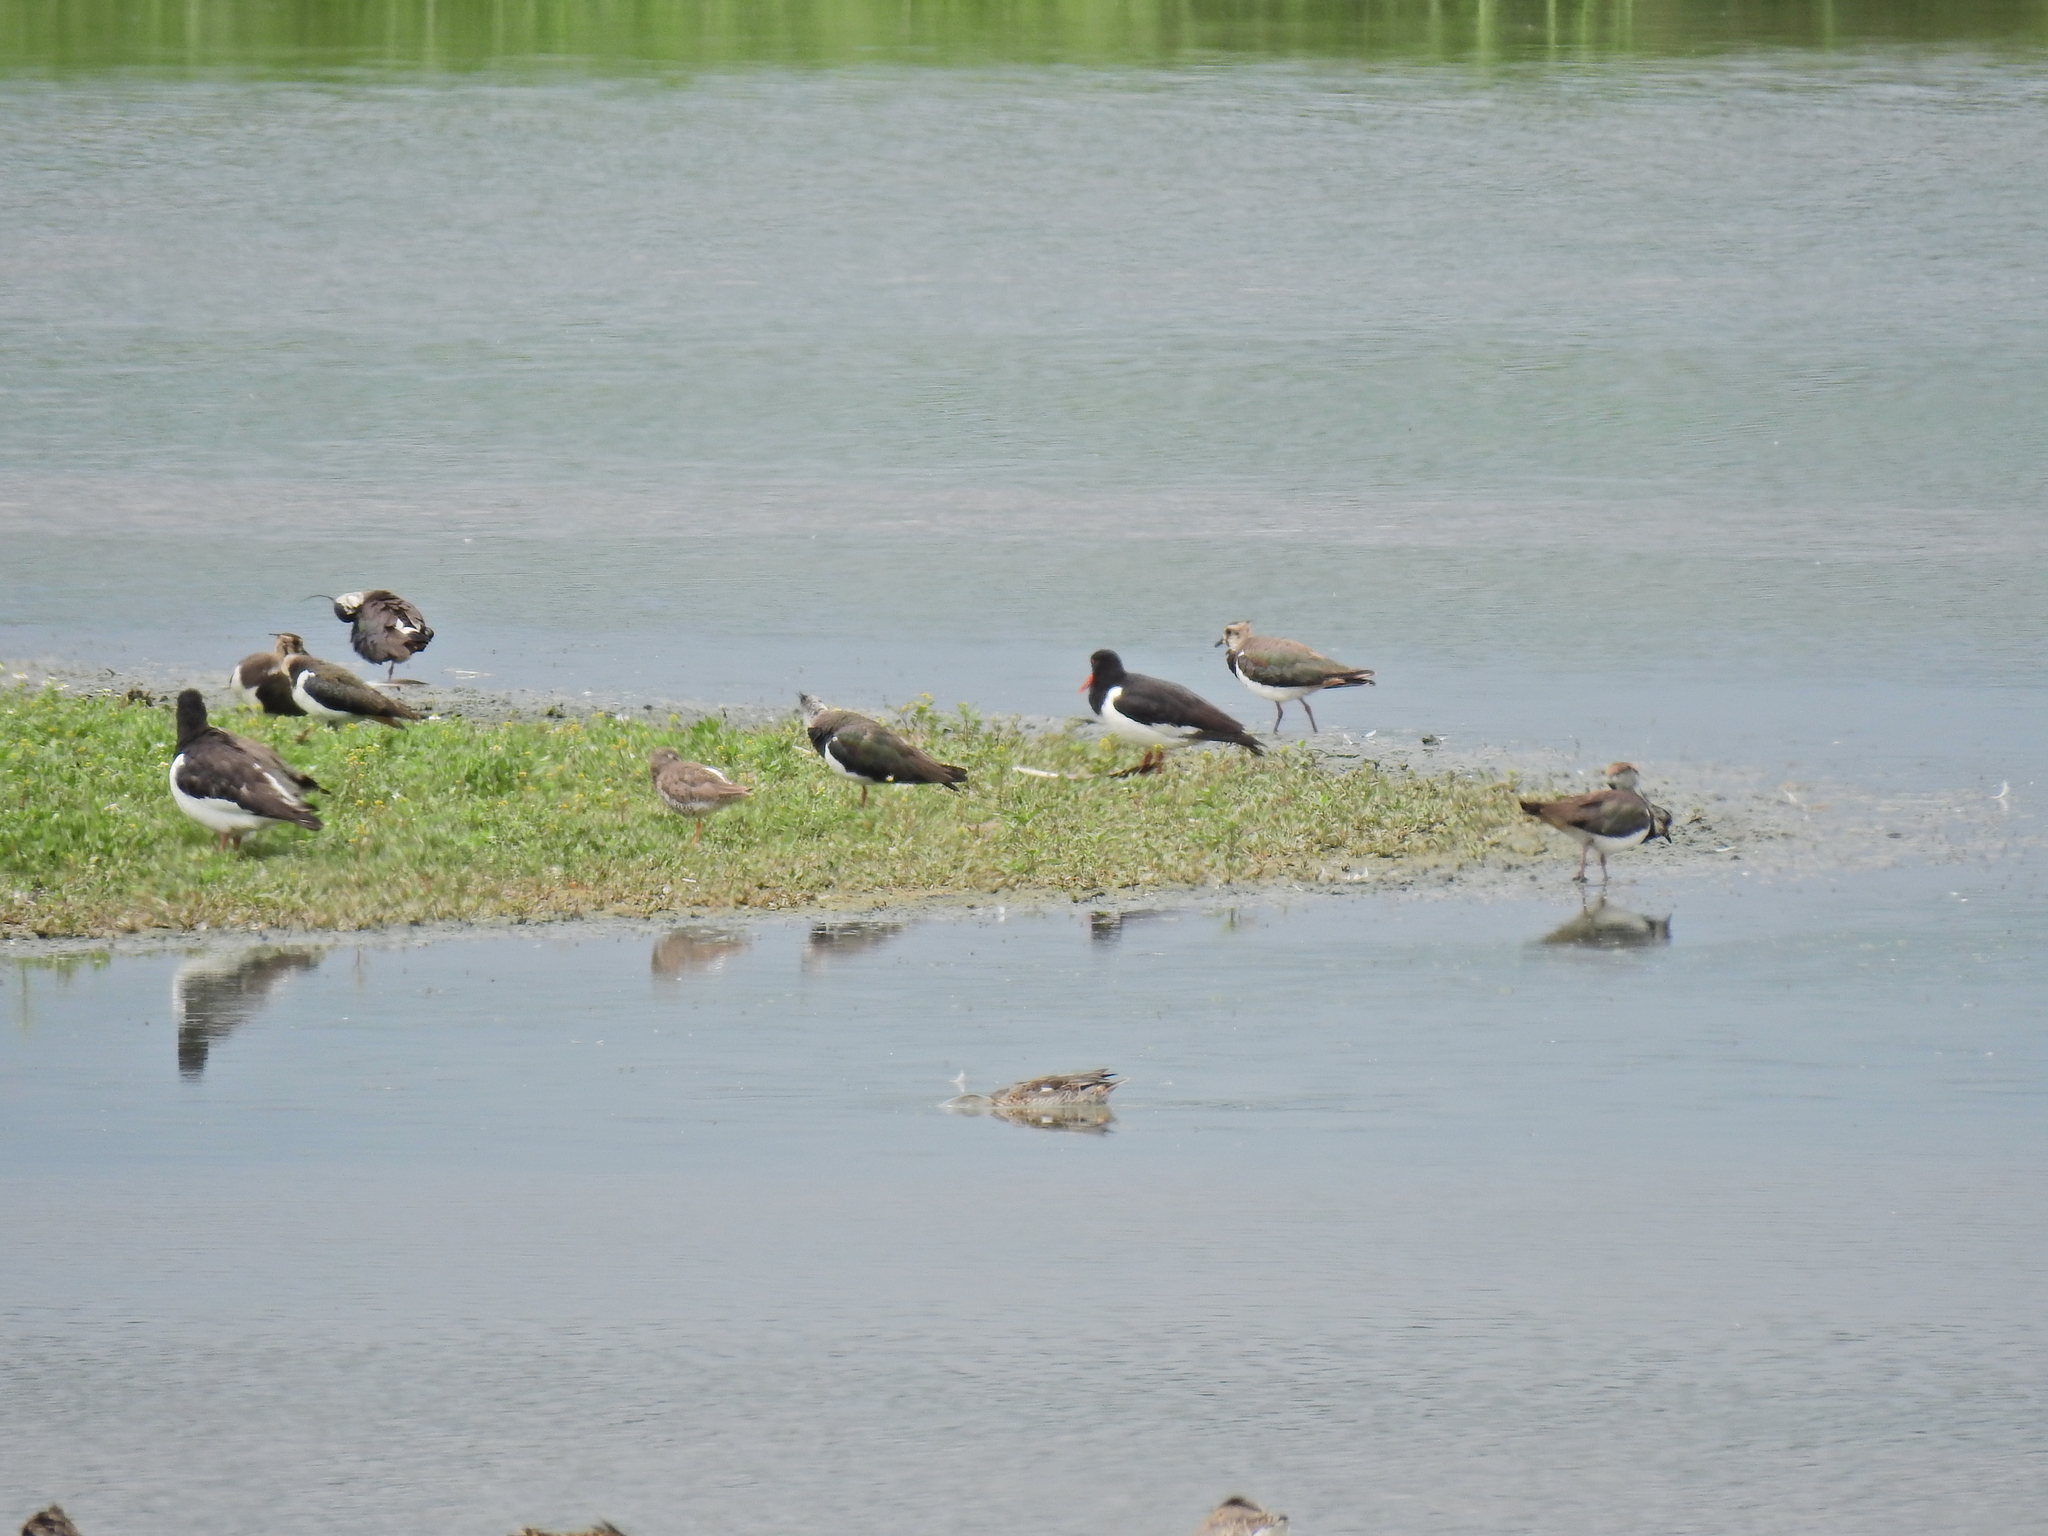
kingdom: Animalia
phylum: Chordata
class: Aves
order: Charadriiformes
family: Haematopodidae
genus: Haematopus
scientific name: Haematopus ostralegus
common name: Eurasian oystercatcher
